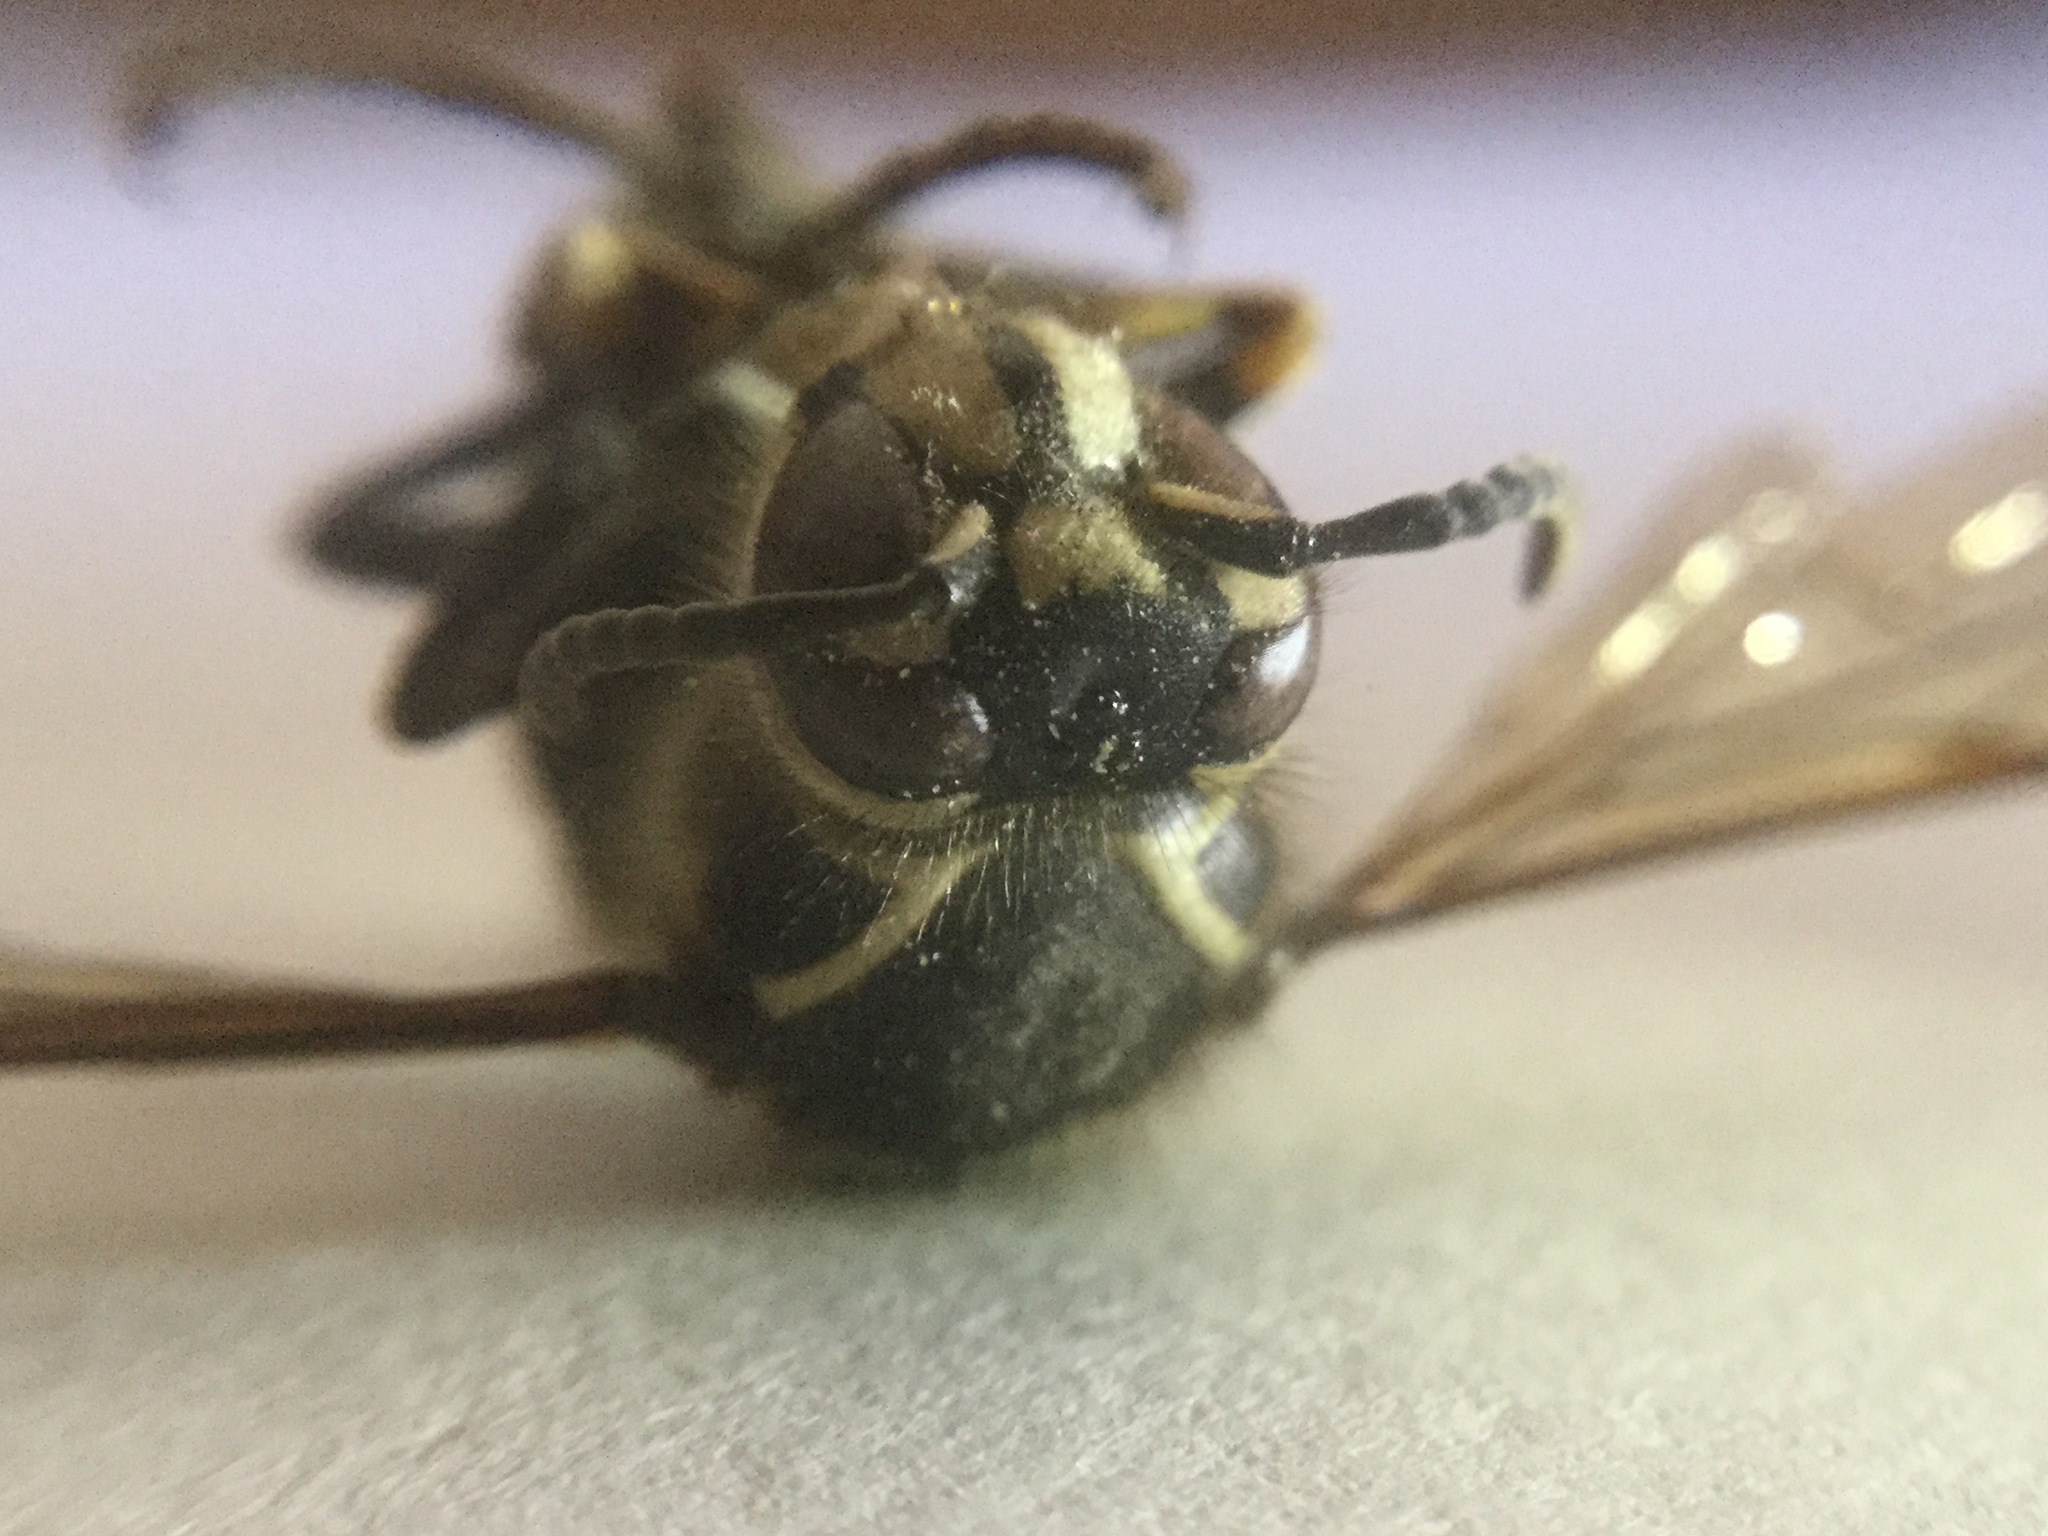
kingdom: Animalia
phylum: Arthropoda
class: Insecta
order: Hymenoptera
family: Vespidae
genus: Dolichovespula
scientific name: Dolichovespula maculata
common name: Bald-faced hornet
